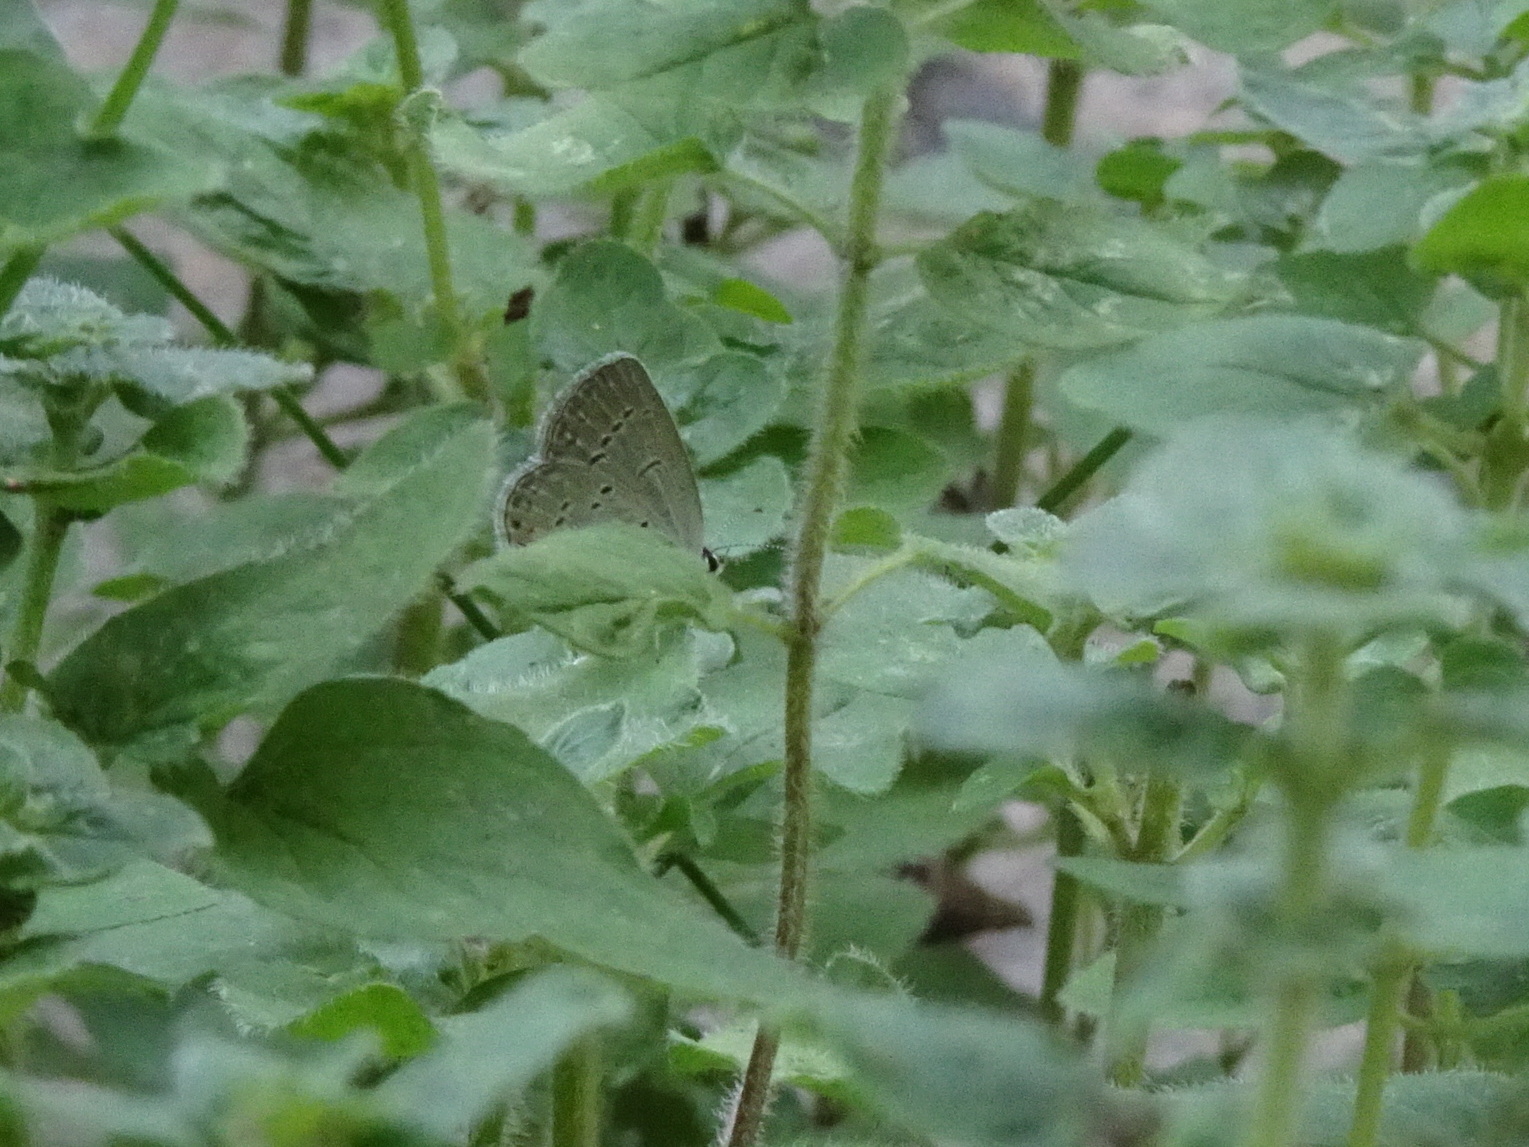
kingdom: Animalia
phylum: Arthropoda
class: Insecta
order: Lepidoptera
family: Lycaenidae
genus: Elkalyce
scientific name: Elkalyce comyntas
